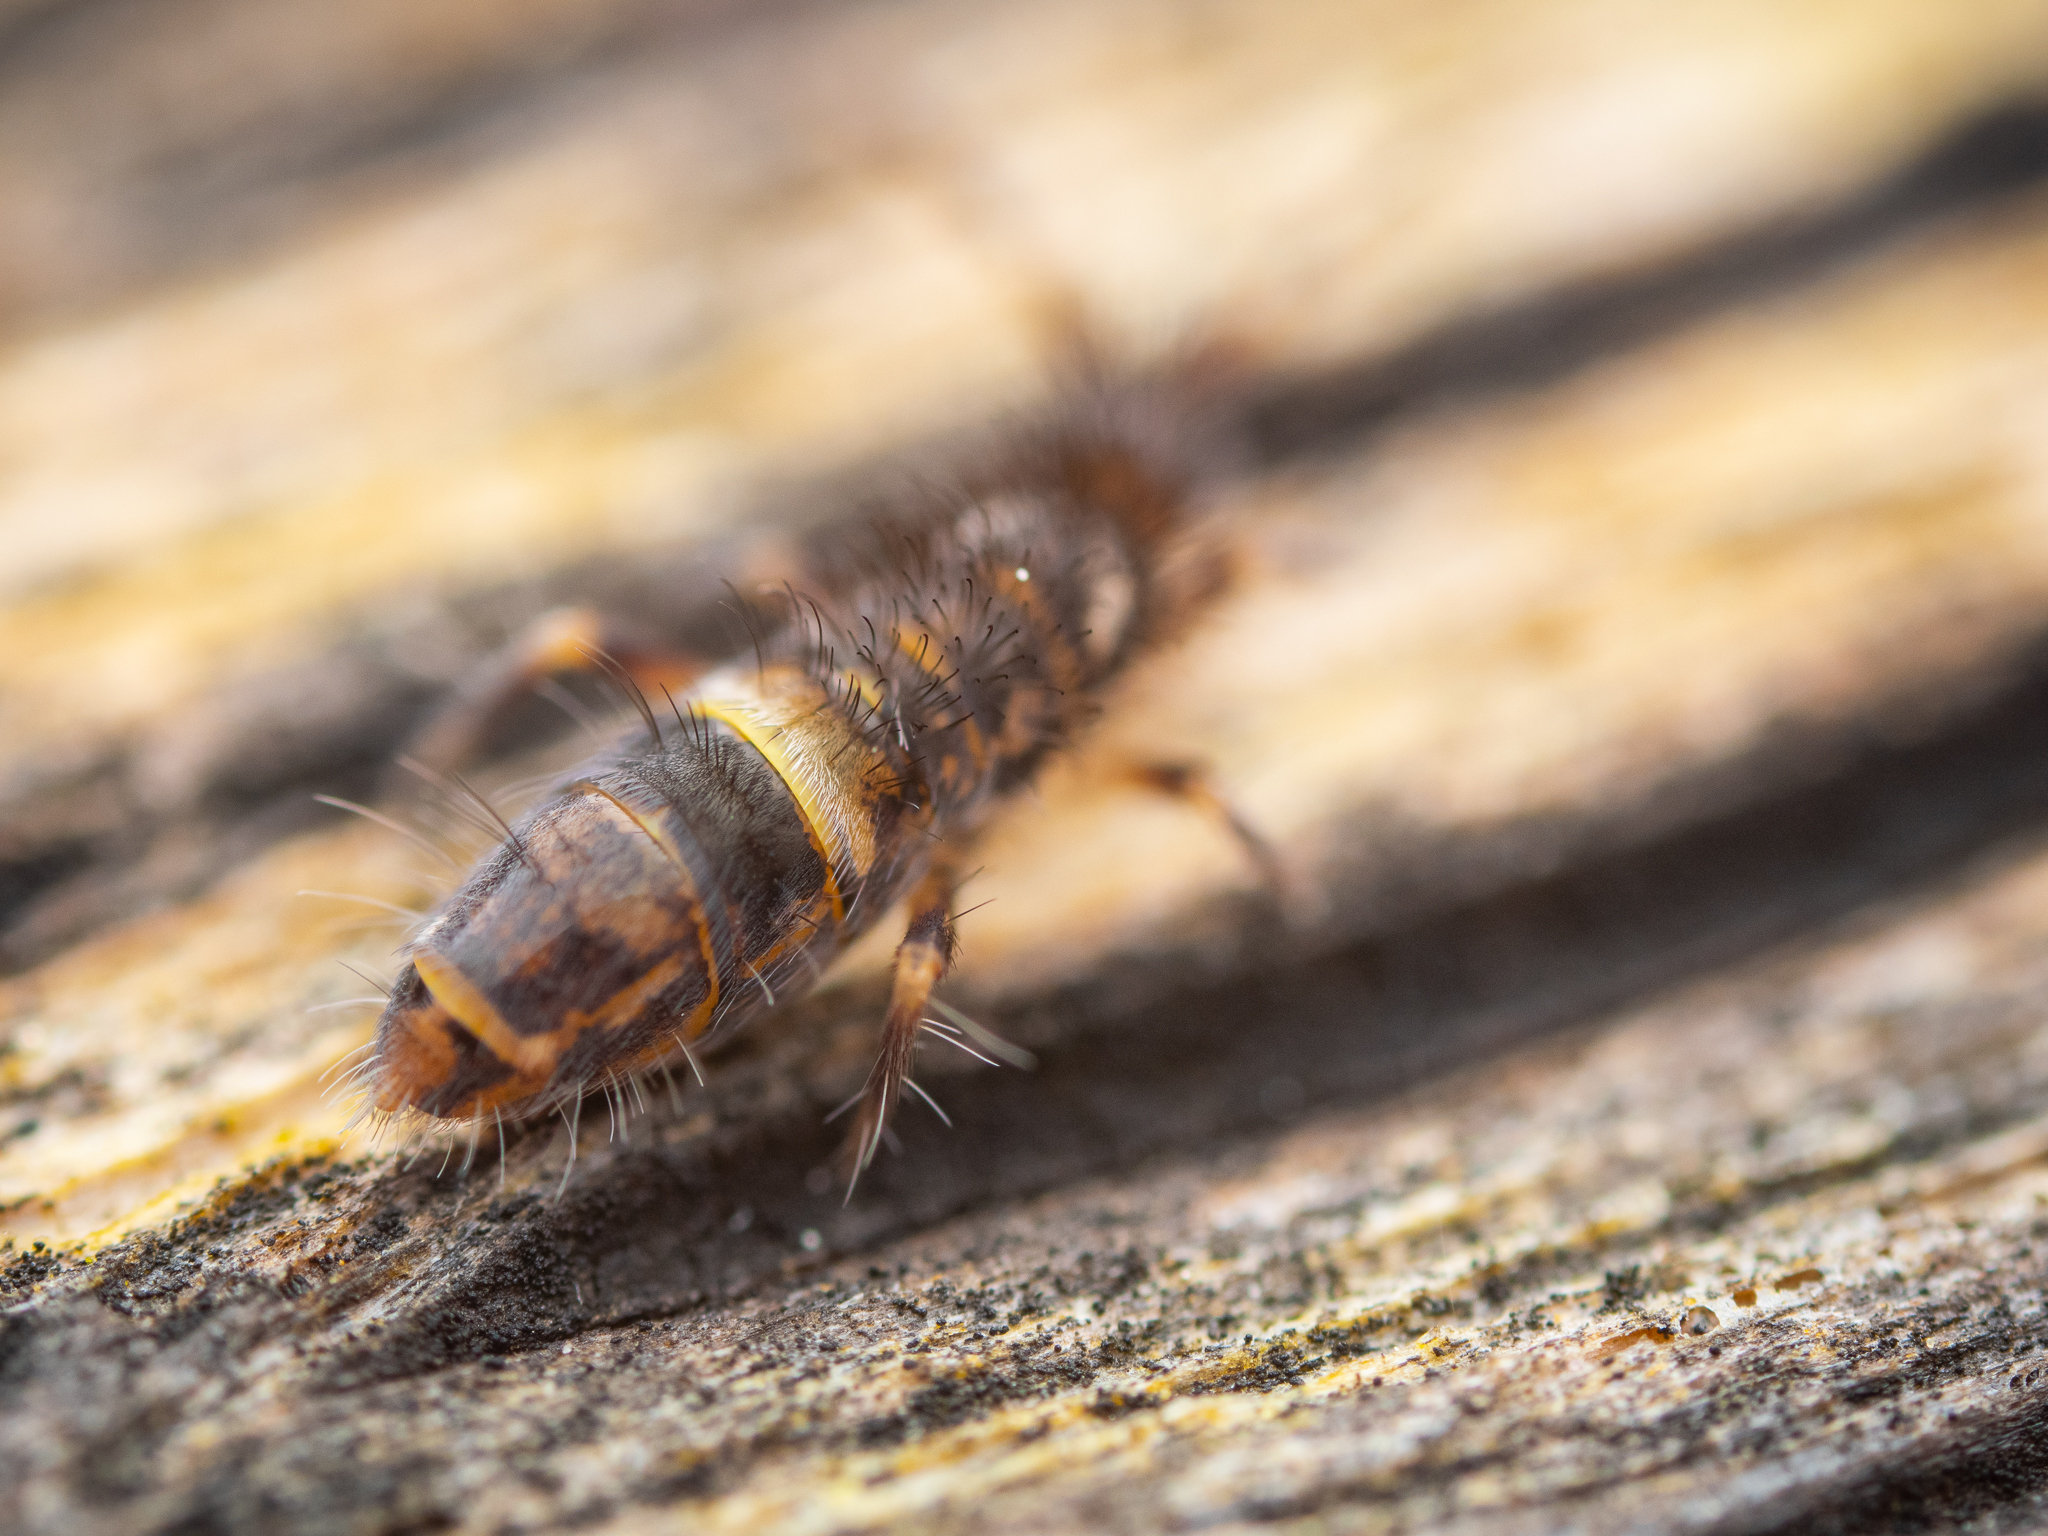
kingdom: Animalia
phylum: Arthropoda
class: Collembola
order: Entomobryomorpha
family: Orchesellidae
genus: Orchesella
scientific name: Orchesella cincta
